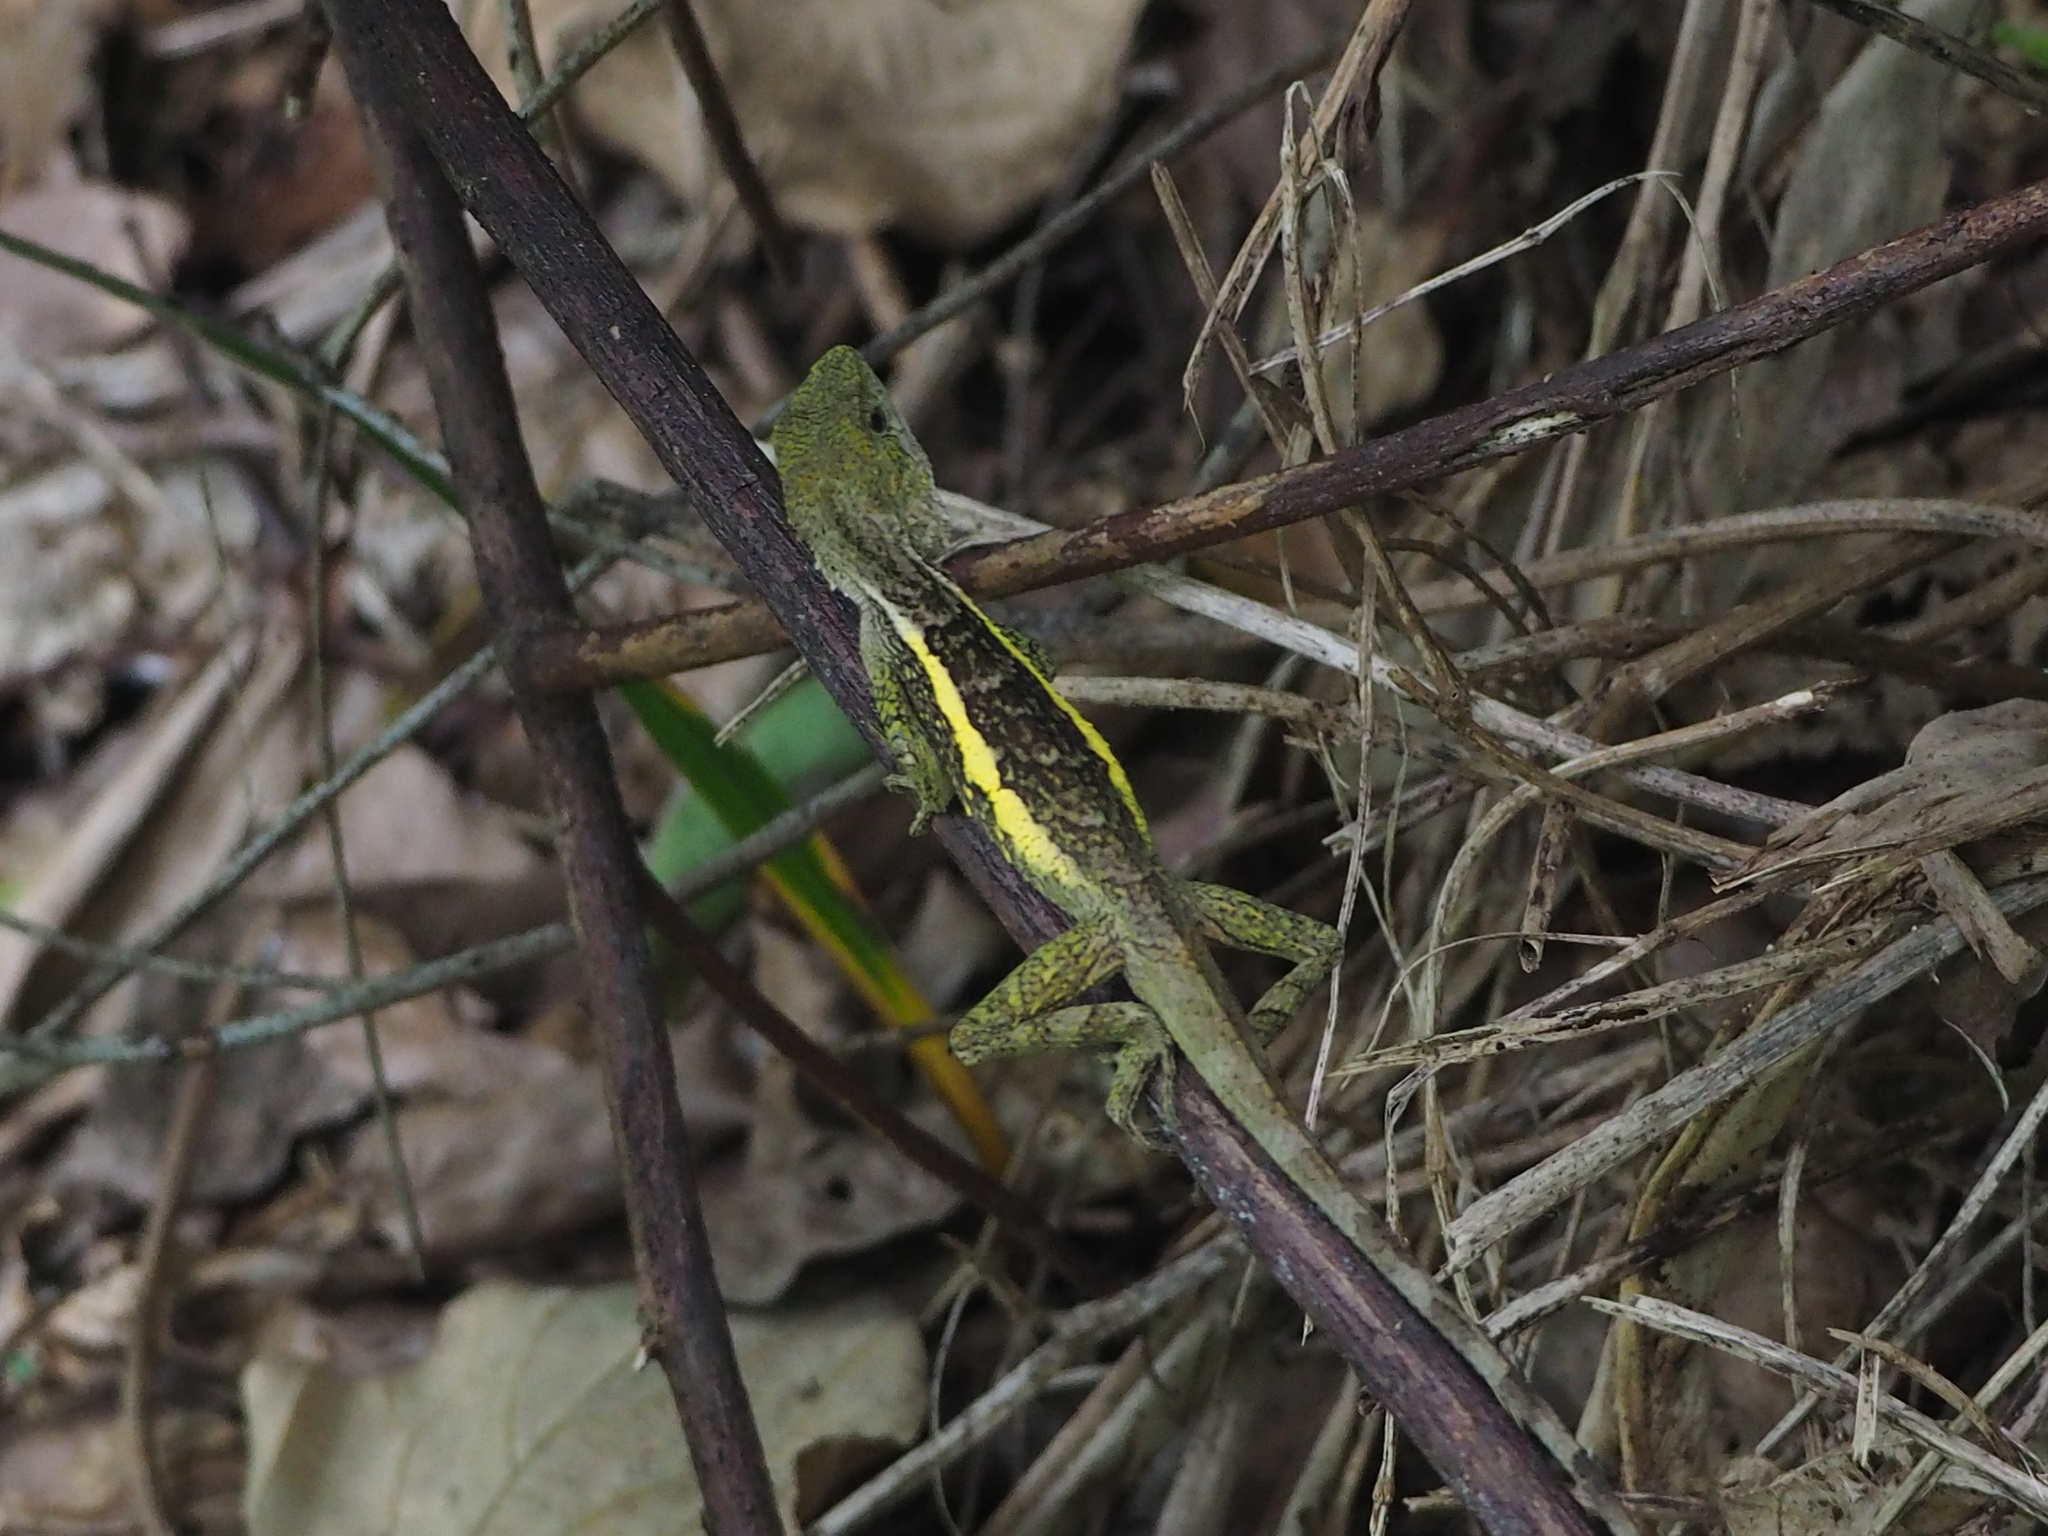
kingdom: Animalia
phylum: Chordata
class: Squamata
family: Agamidae
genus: Diploderma
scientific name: Diploderma swinhonis
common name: Taiwan japalure
